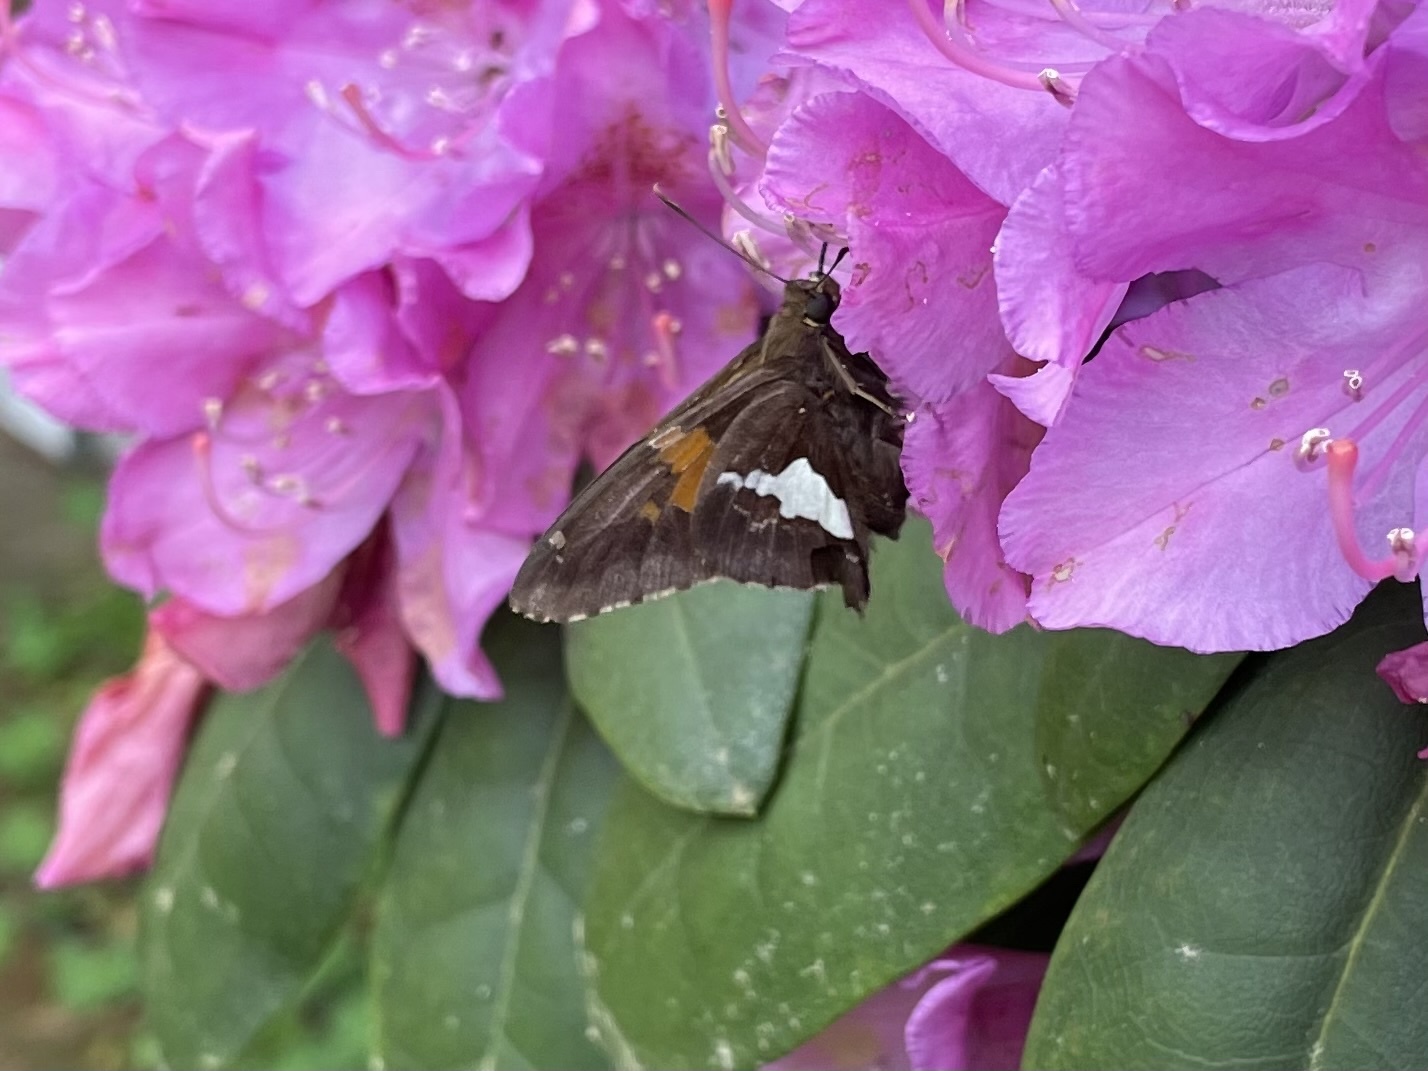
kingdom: Animalia
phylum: Arthropoda
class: Insecta
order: Lepidoptera
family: Hesperiidae
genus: Epargyreus
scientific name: Epargyreus clarus
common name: Silver-spotted skipper
